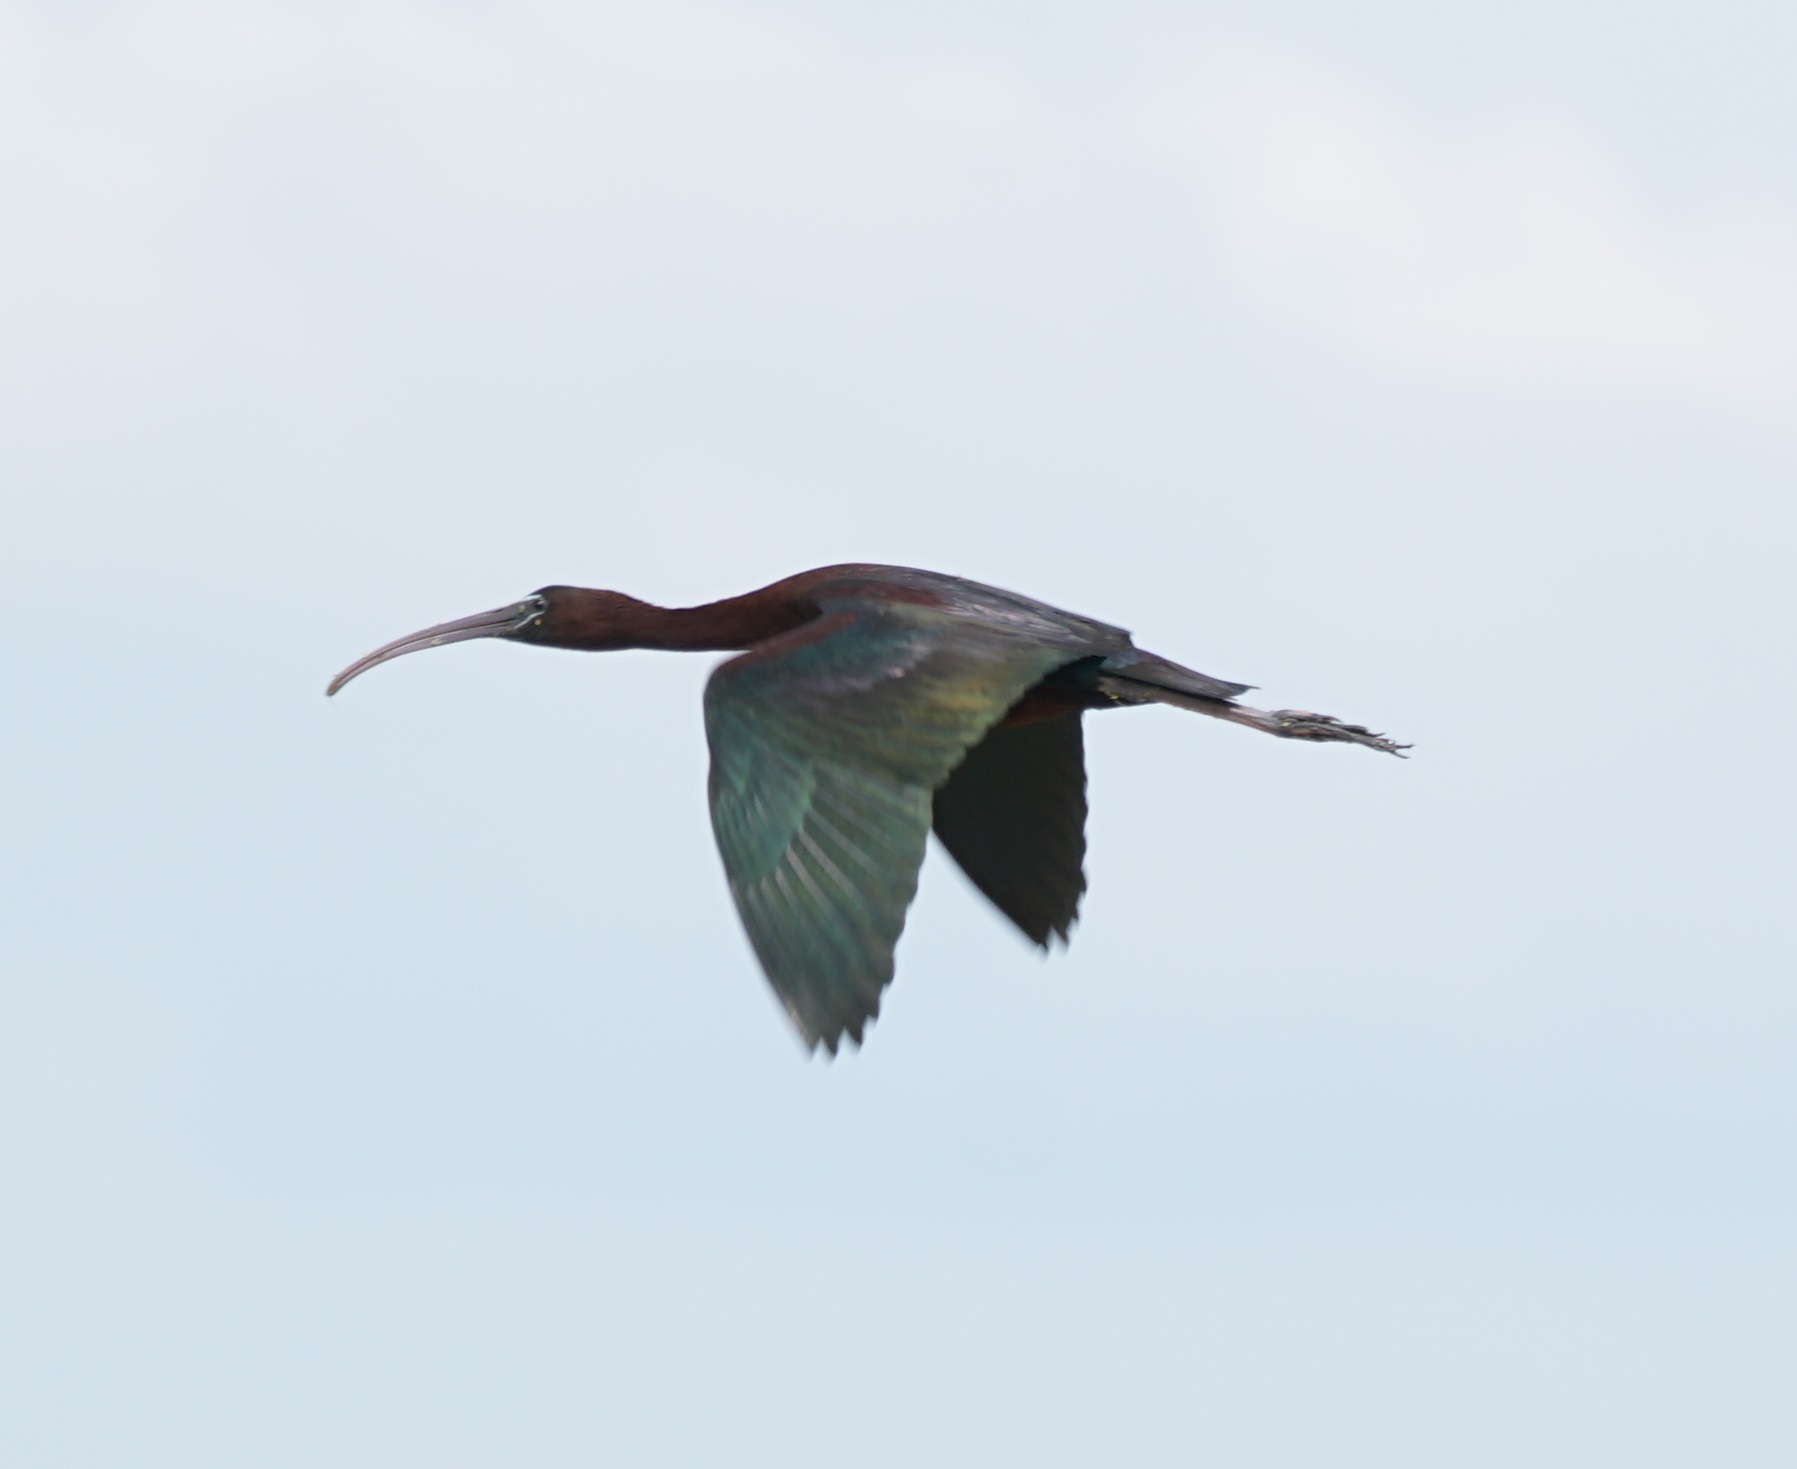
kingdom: Animalia
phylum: Chordata
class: Aves
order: Pelecaniformes
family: Threskiornithidae
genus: Plegadis
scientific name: Plegadis falcinellus
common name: Glossy ibis
